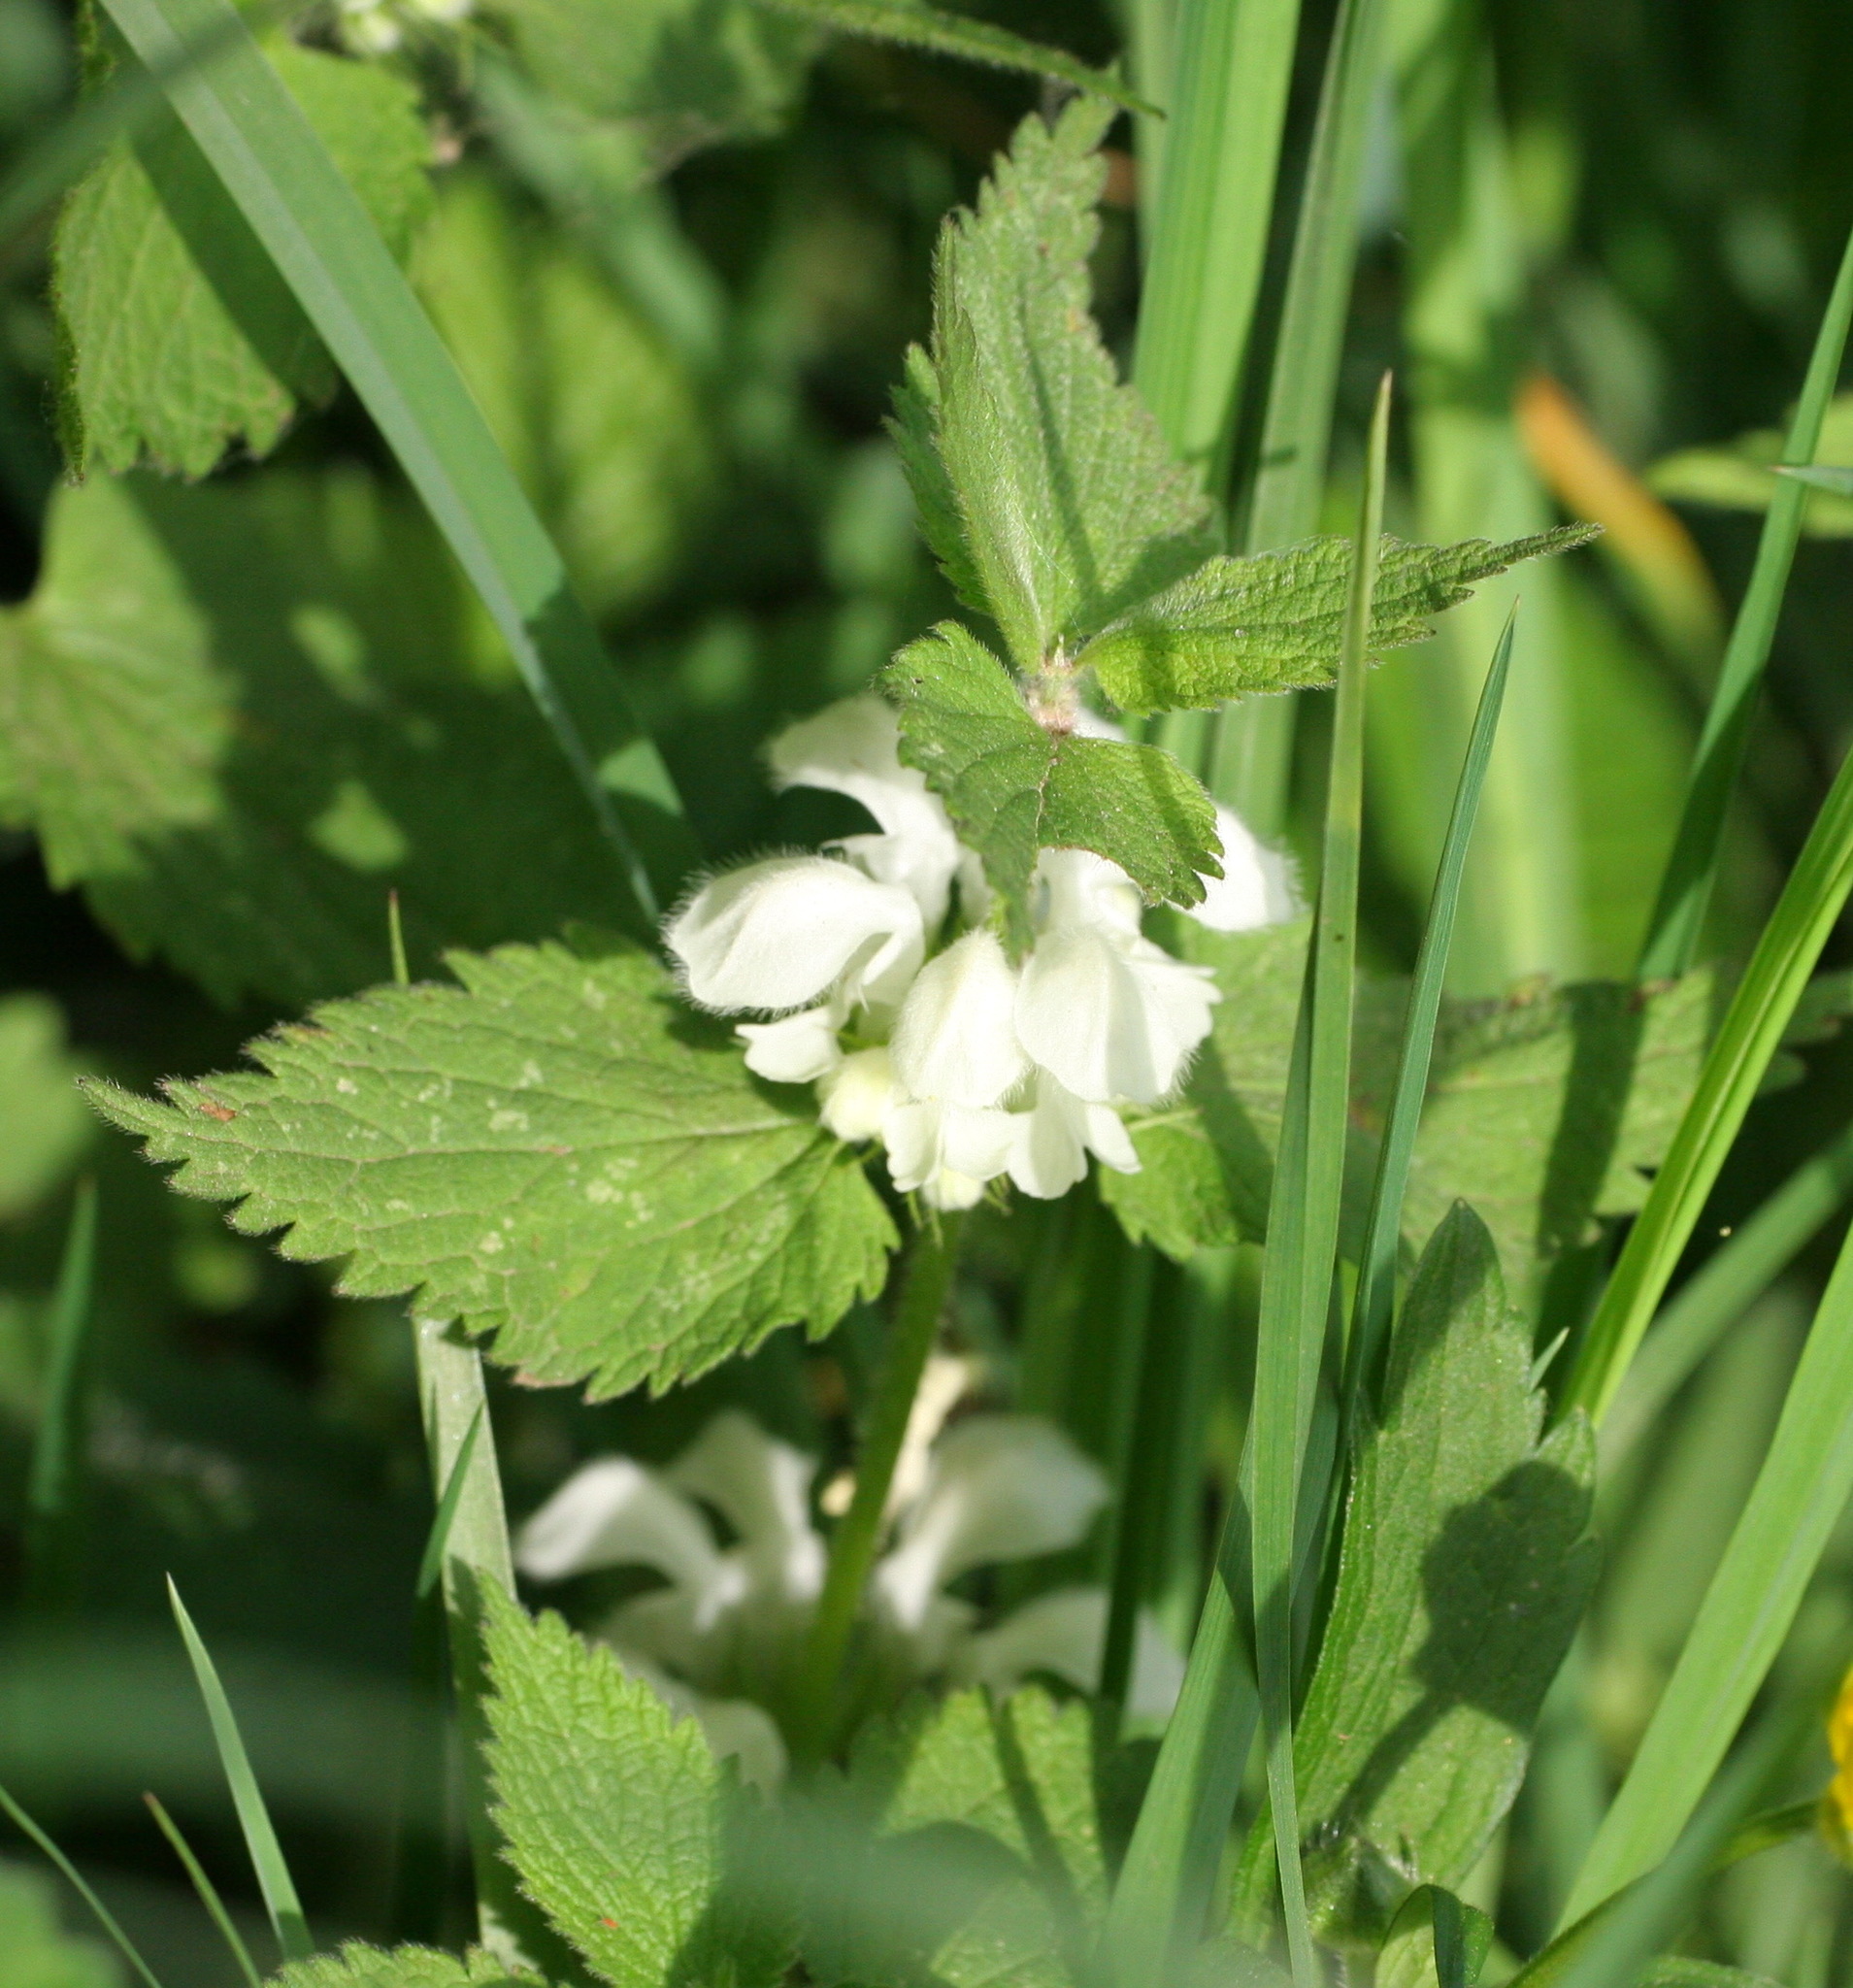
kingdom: Plantae
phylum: Tracheophyta
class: Magnoliopsida
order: Lamiales
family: Lamiaceae
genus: Lamium
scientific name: Lamium album
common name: White dead-nettle
